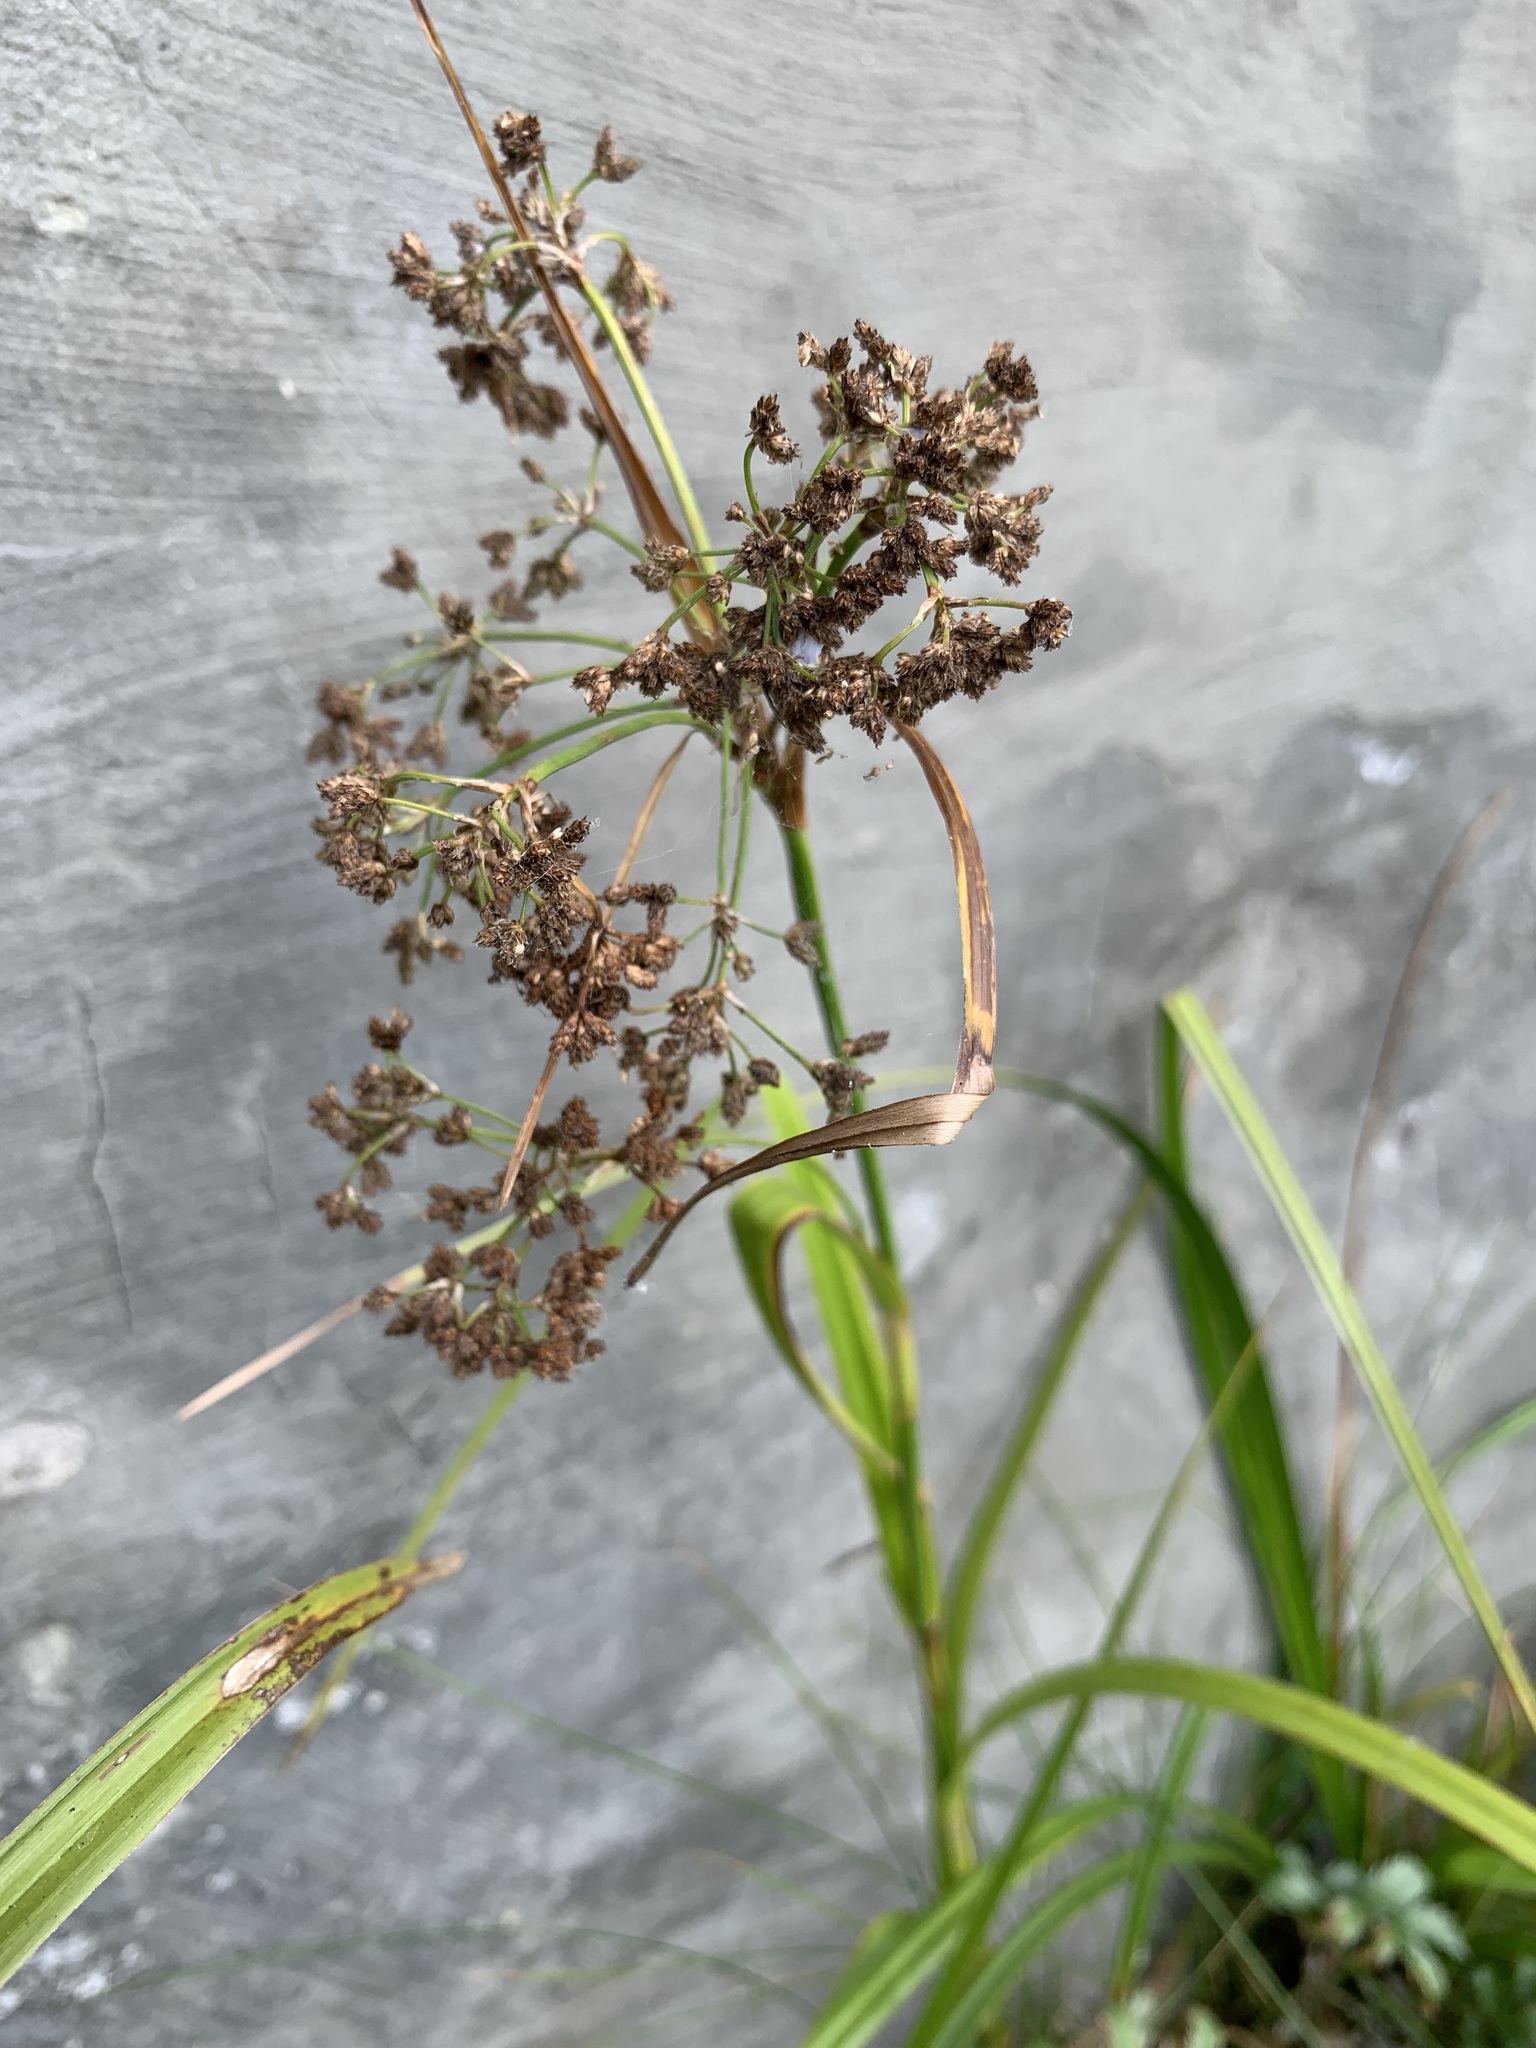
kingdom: Plantae
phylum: Tracheophyta
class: Liliopsida
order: Poales
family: Cyperaceae
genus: Scirpus
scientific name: Scirpus sylvaticus
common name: Wood club-rush
